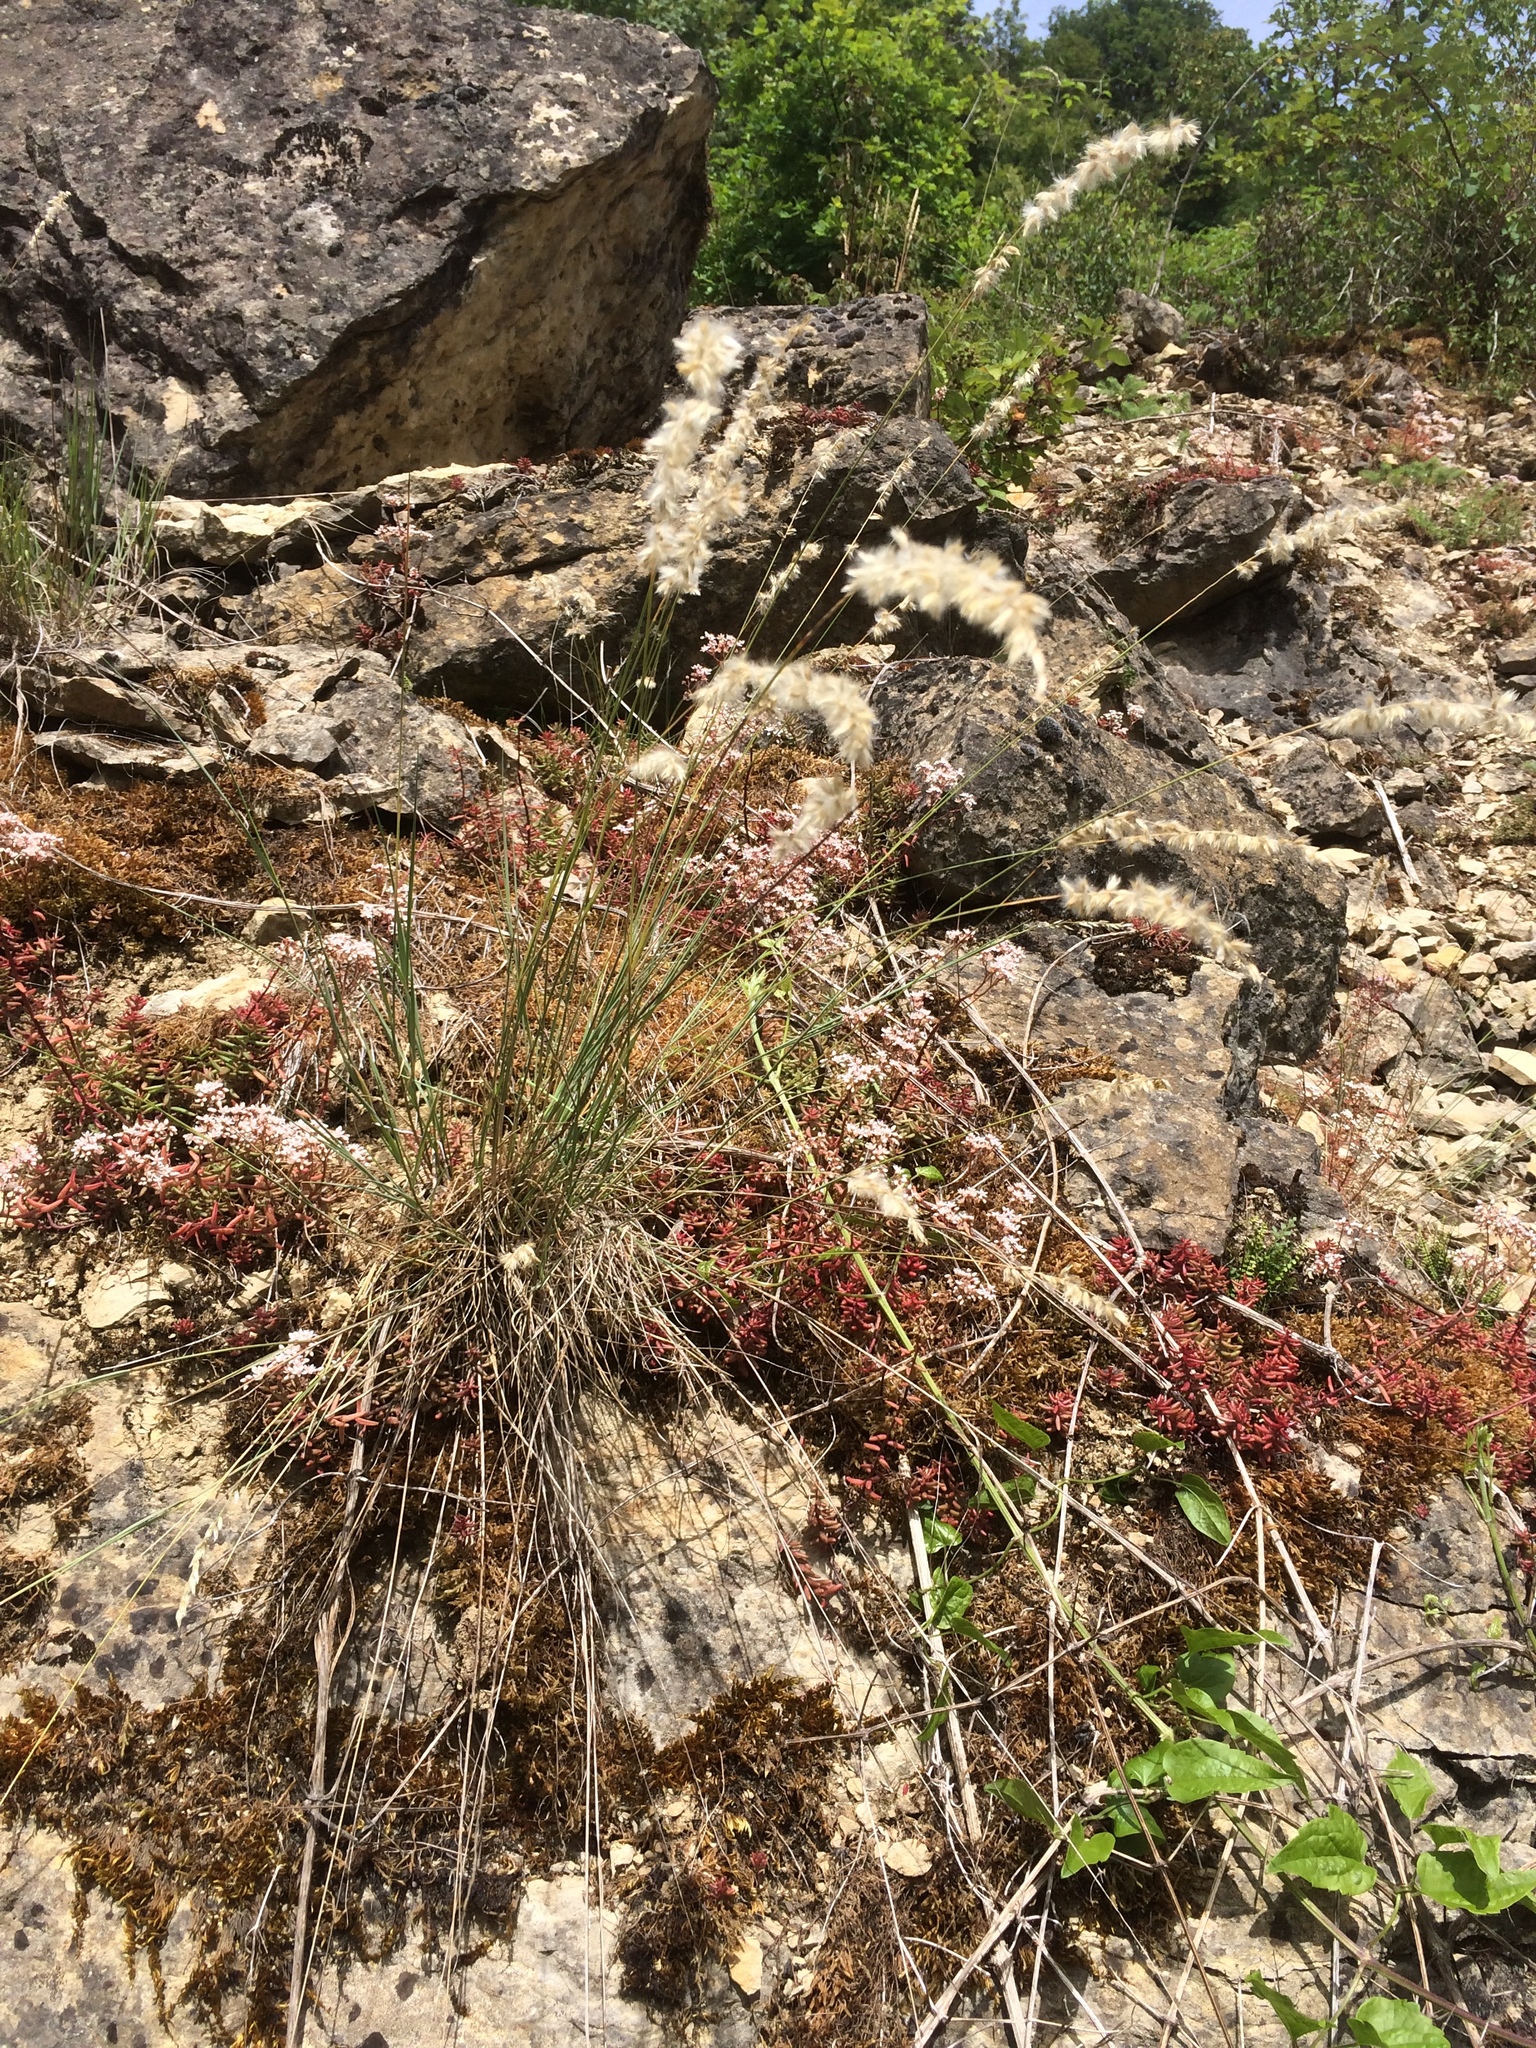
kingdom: Plantae
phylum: Tracheophyta
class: Liliopsida
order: Poales
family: Poaceae
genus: Melica
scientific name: Melica ciliata
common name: Hairy melicgrass
